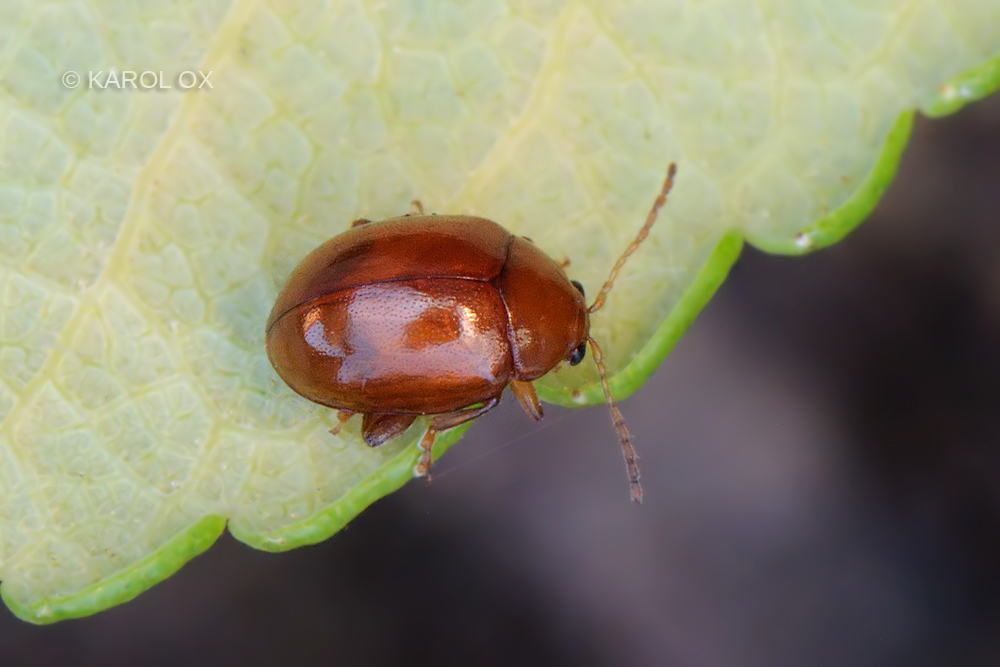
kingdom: Animalia
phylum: Arthropoda
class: Insecta
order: Coleoptera
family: Chrysomelidae
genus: Pistosia
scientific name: Pistosia testacea
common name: Leaf beetle
